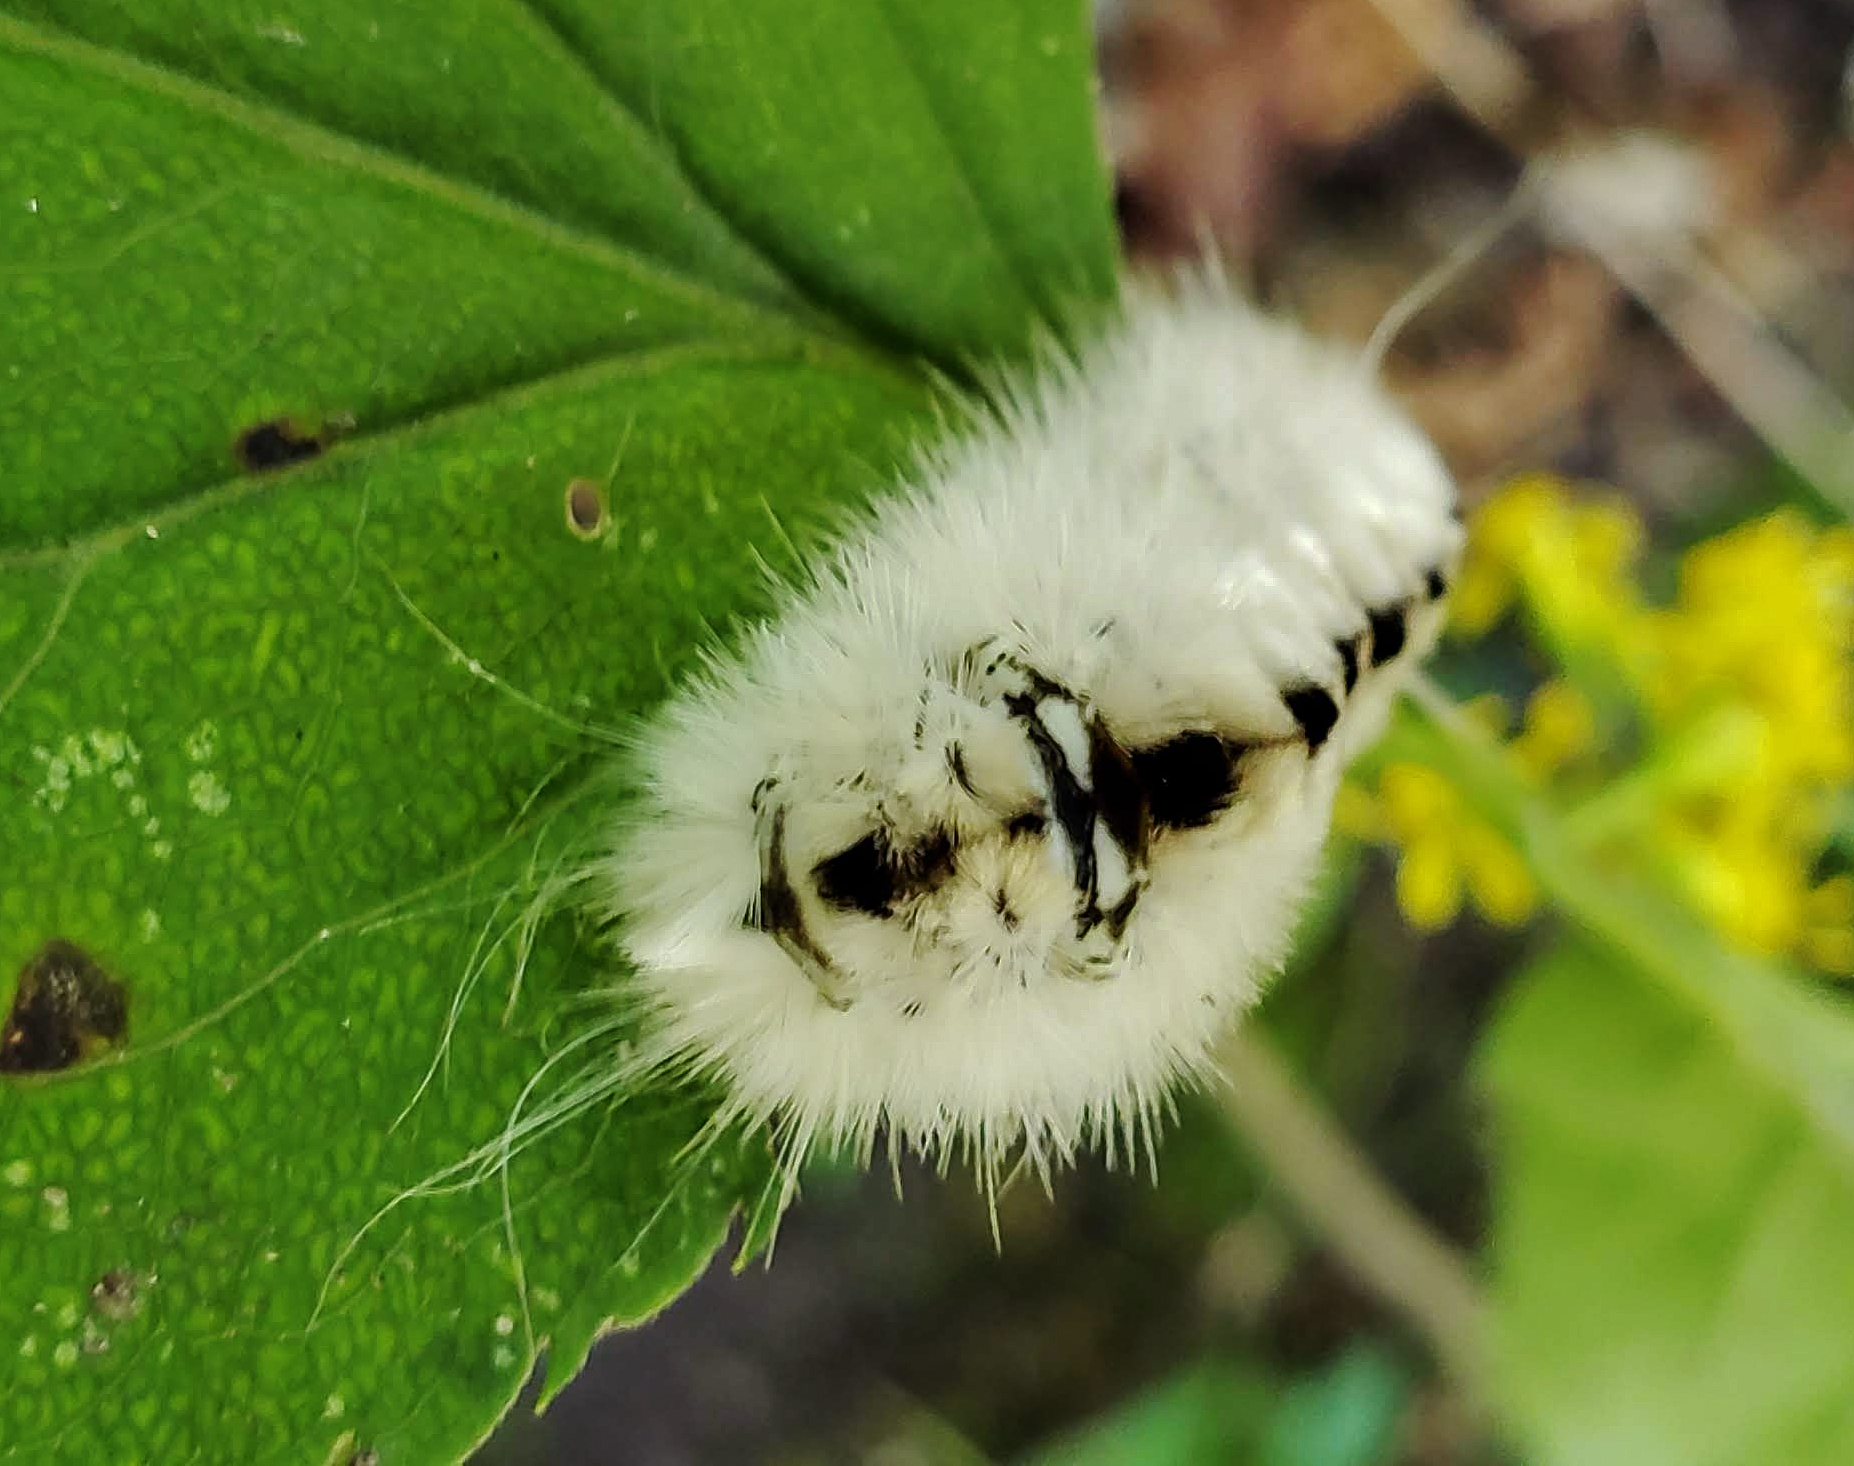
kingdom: Animalia
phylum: Arthropoda
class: Insecta
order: Lepidoptera
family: Erebidae
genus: Lophocampa
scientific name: Lophocampa caryae
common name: Hickory tussock moth
